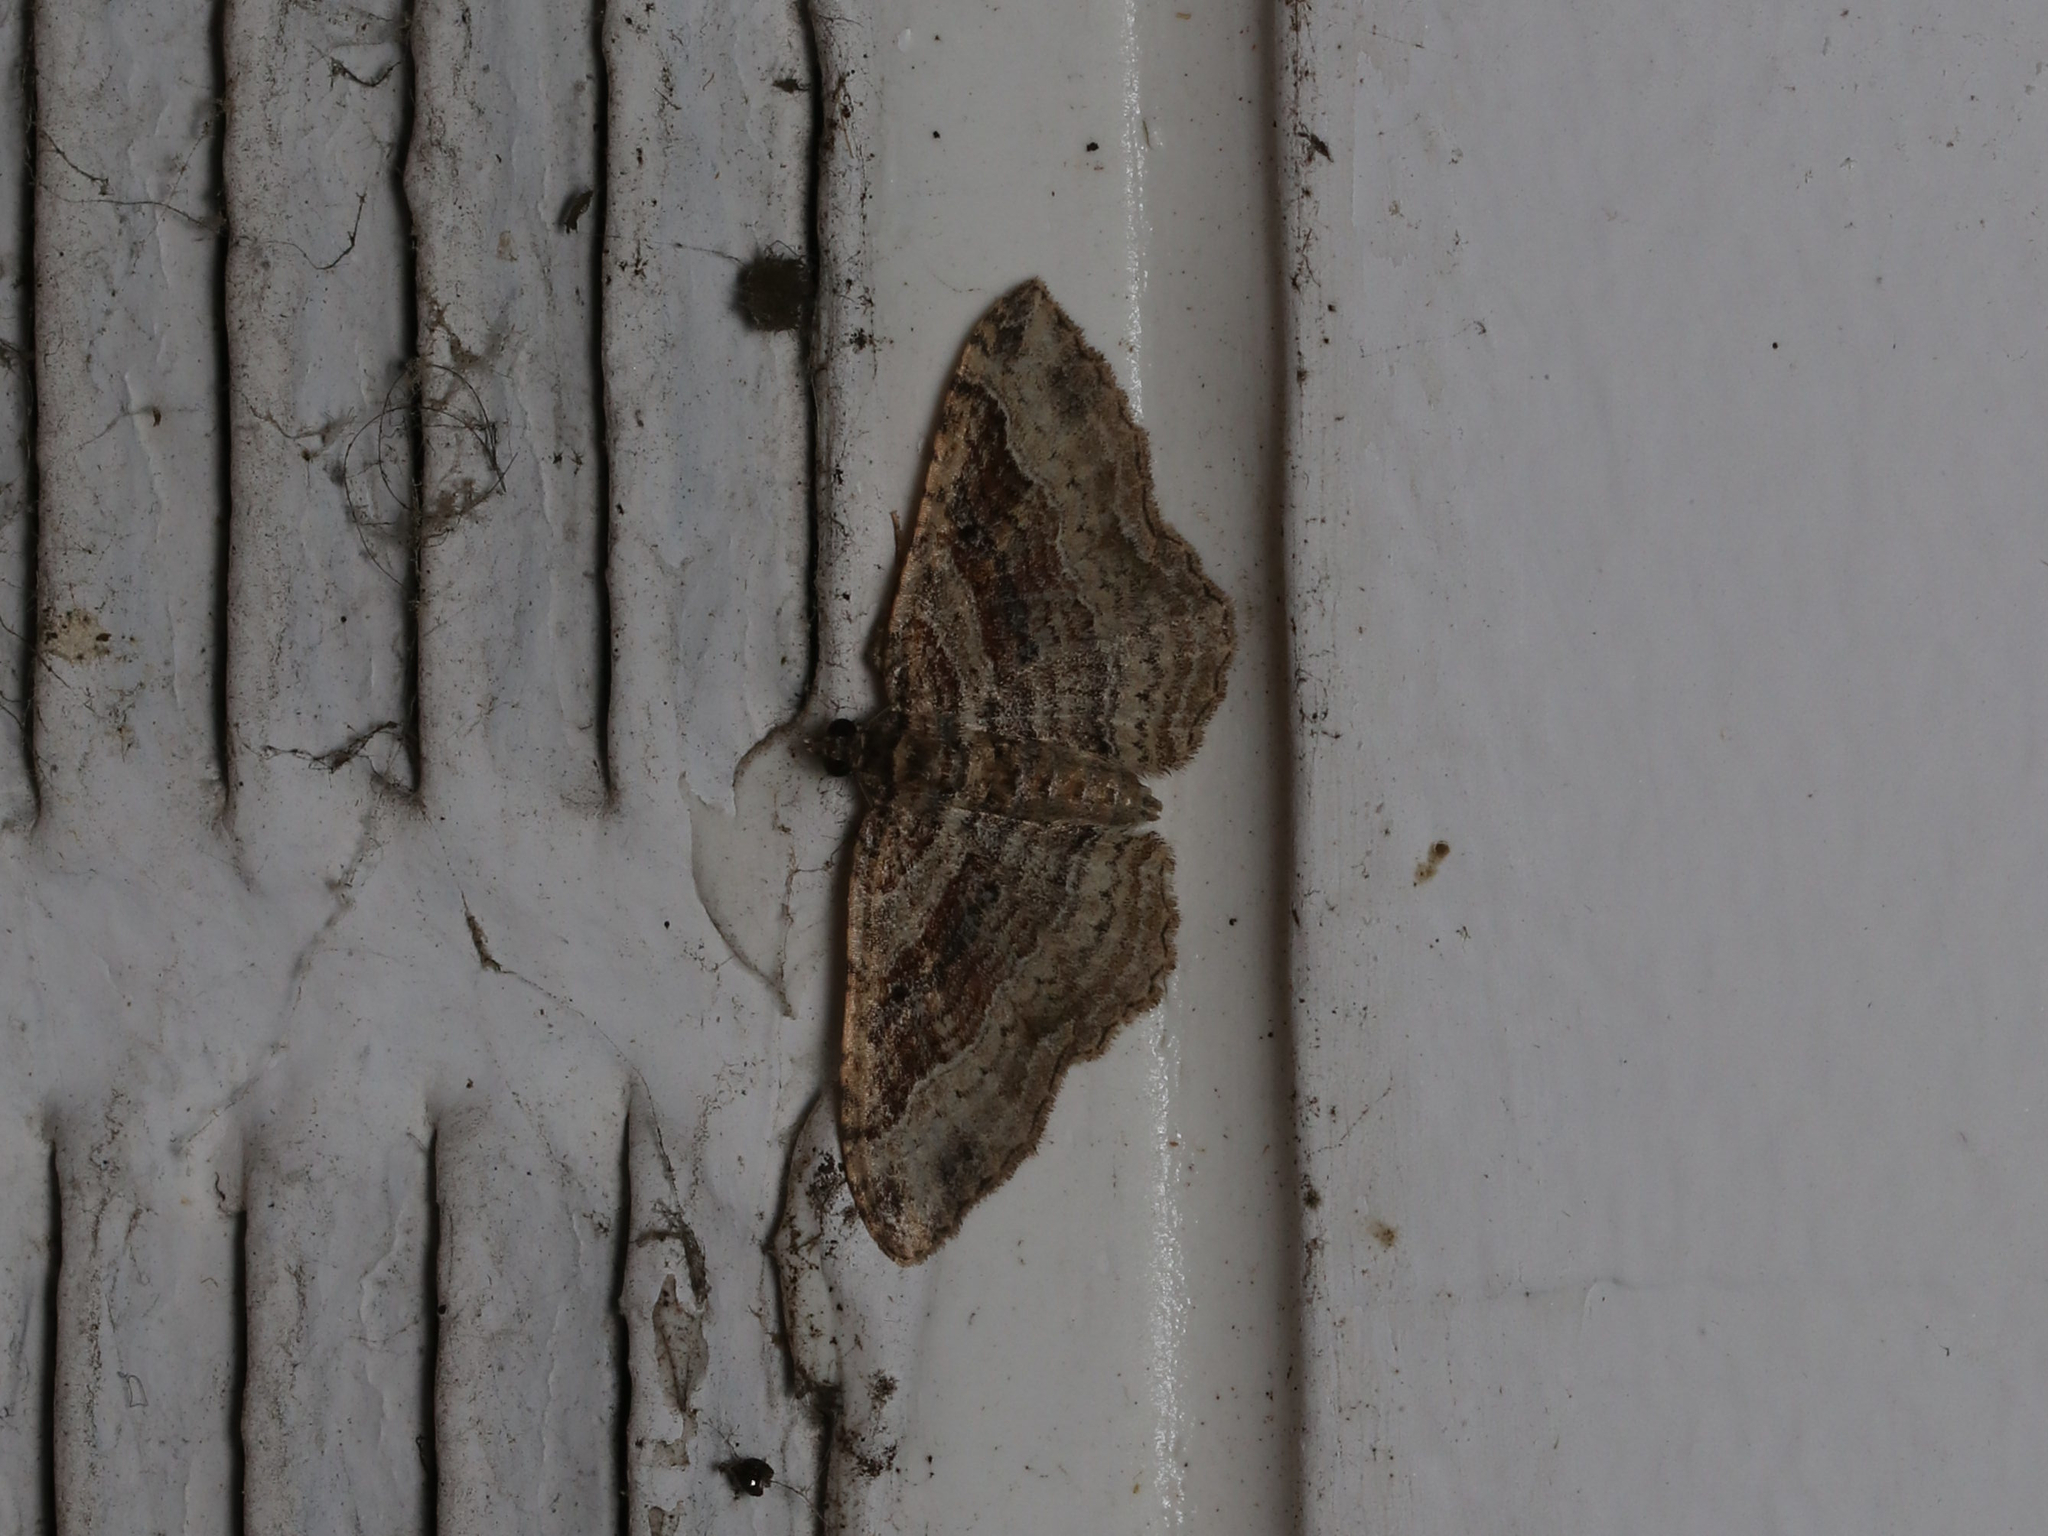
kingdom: Animalia
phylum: Arthropoda
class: Insecta
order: Lepidoptera
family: Geometridae
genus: Costaconvexa
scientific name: Costaconvexa centrostrigaria
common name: Bent-line carpet
